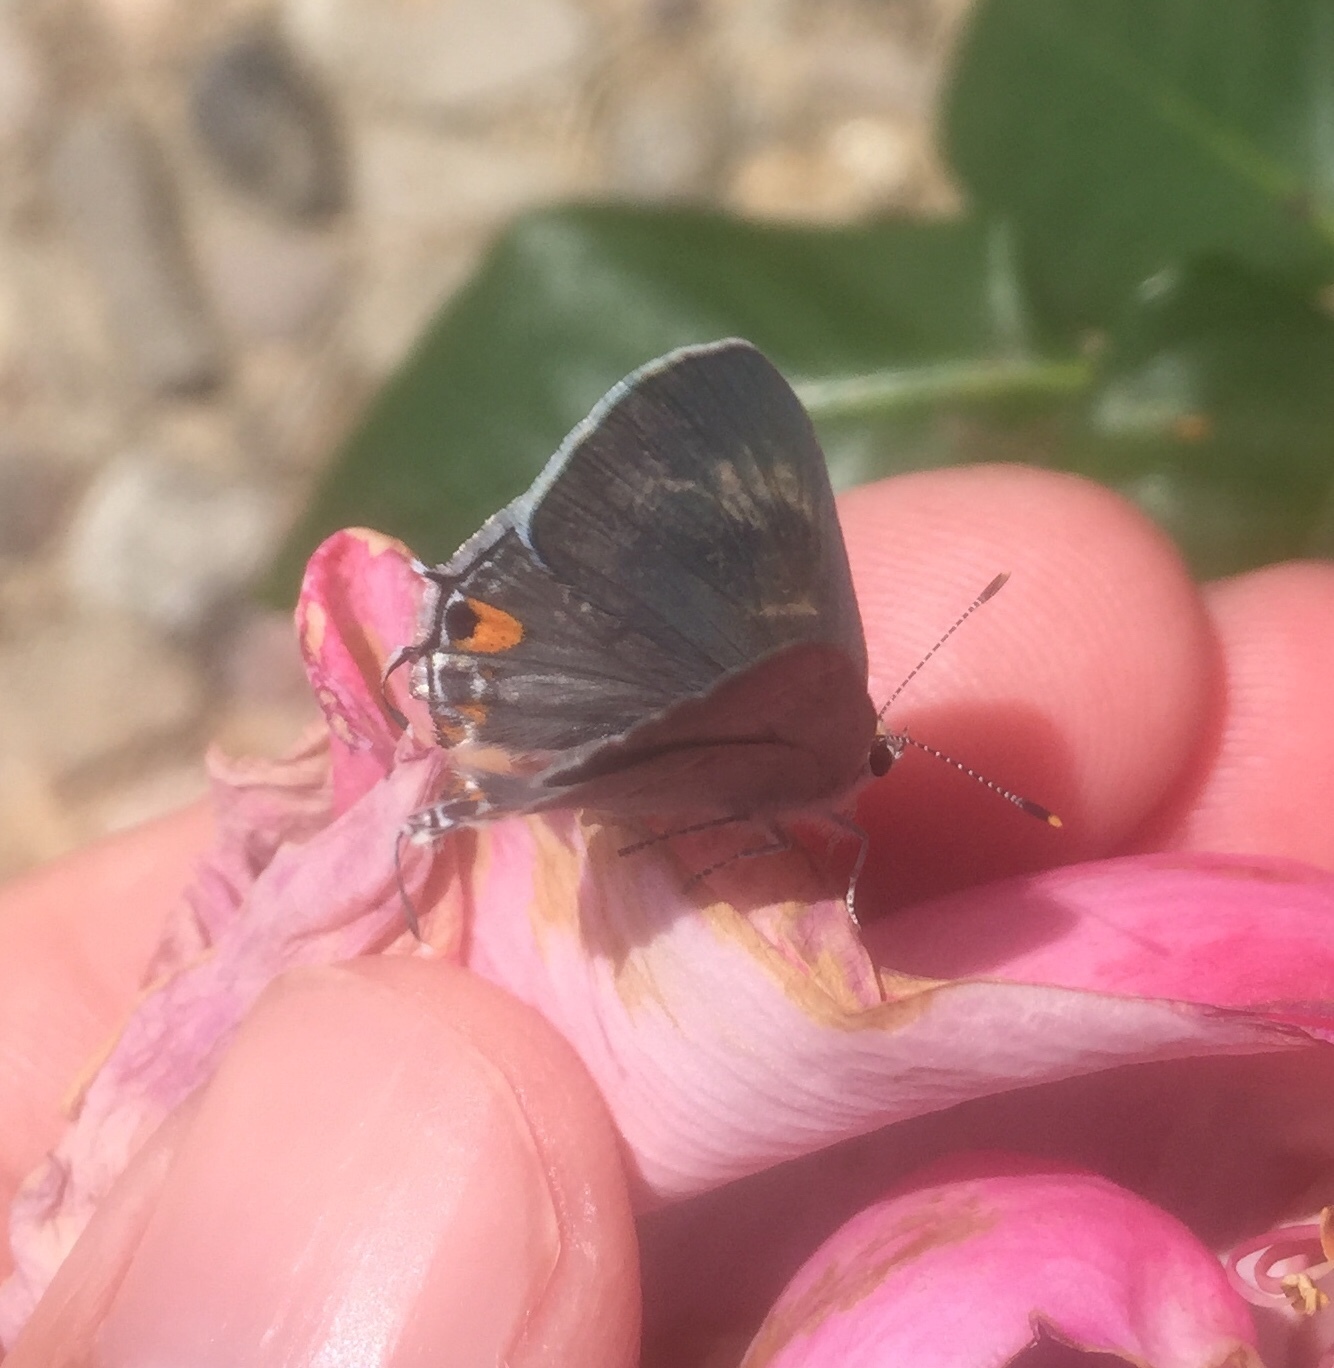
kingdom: Animalia
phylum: Arthropoda
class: Insecta
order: Lepidoptera
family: Lycaenidae
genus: Strymon
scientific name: Strymon melinus
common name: Gray hairstreak
